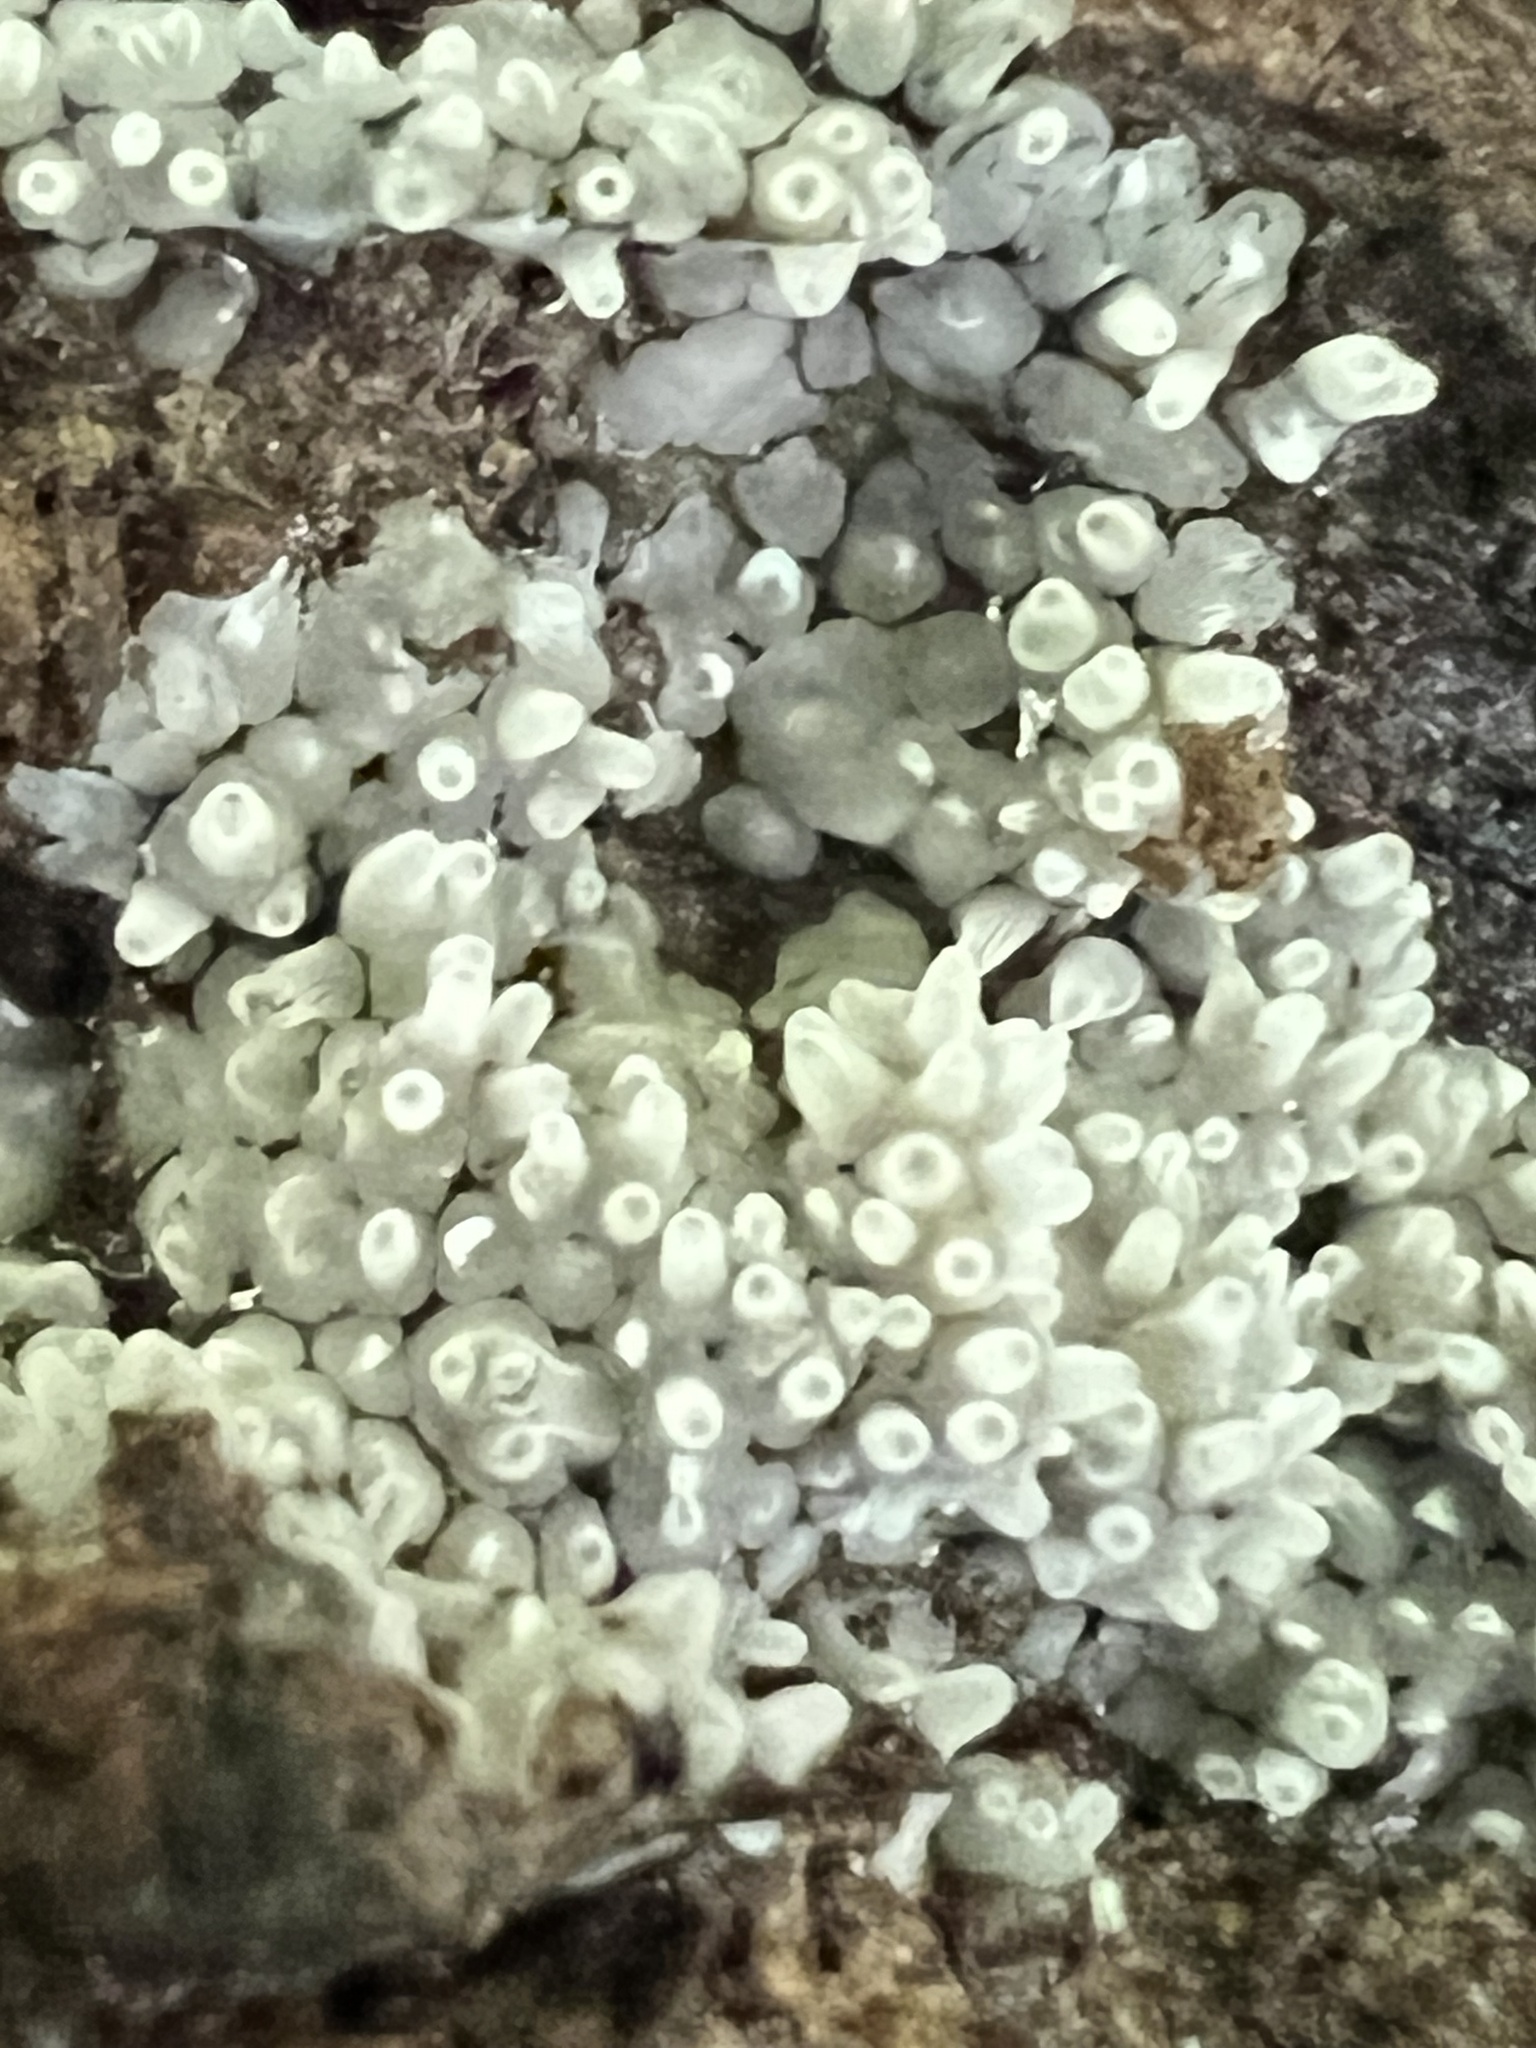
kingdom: Protozoa
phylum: Mycetozoa
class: Protosteliomycetes
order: Ceratiomyxales
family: Ceratiomyxaceae
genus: Ceratiomyxa
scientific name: Ceratiomyxa fruticulosa
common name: Honeycomb coral slime mold
